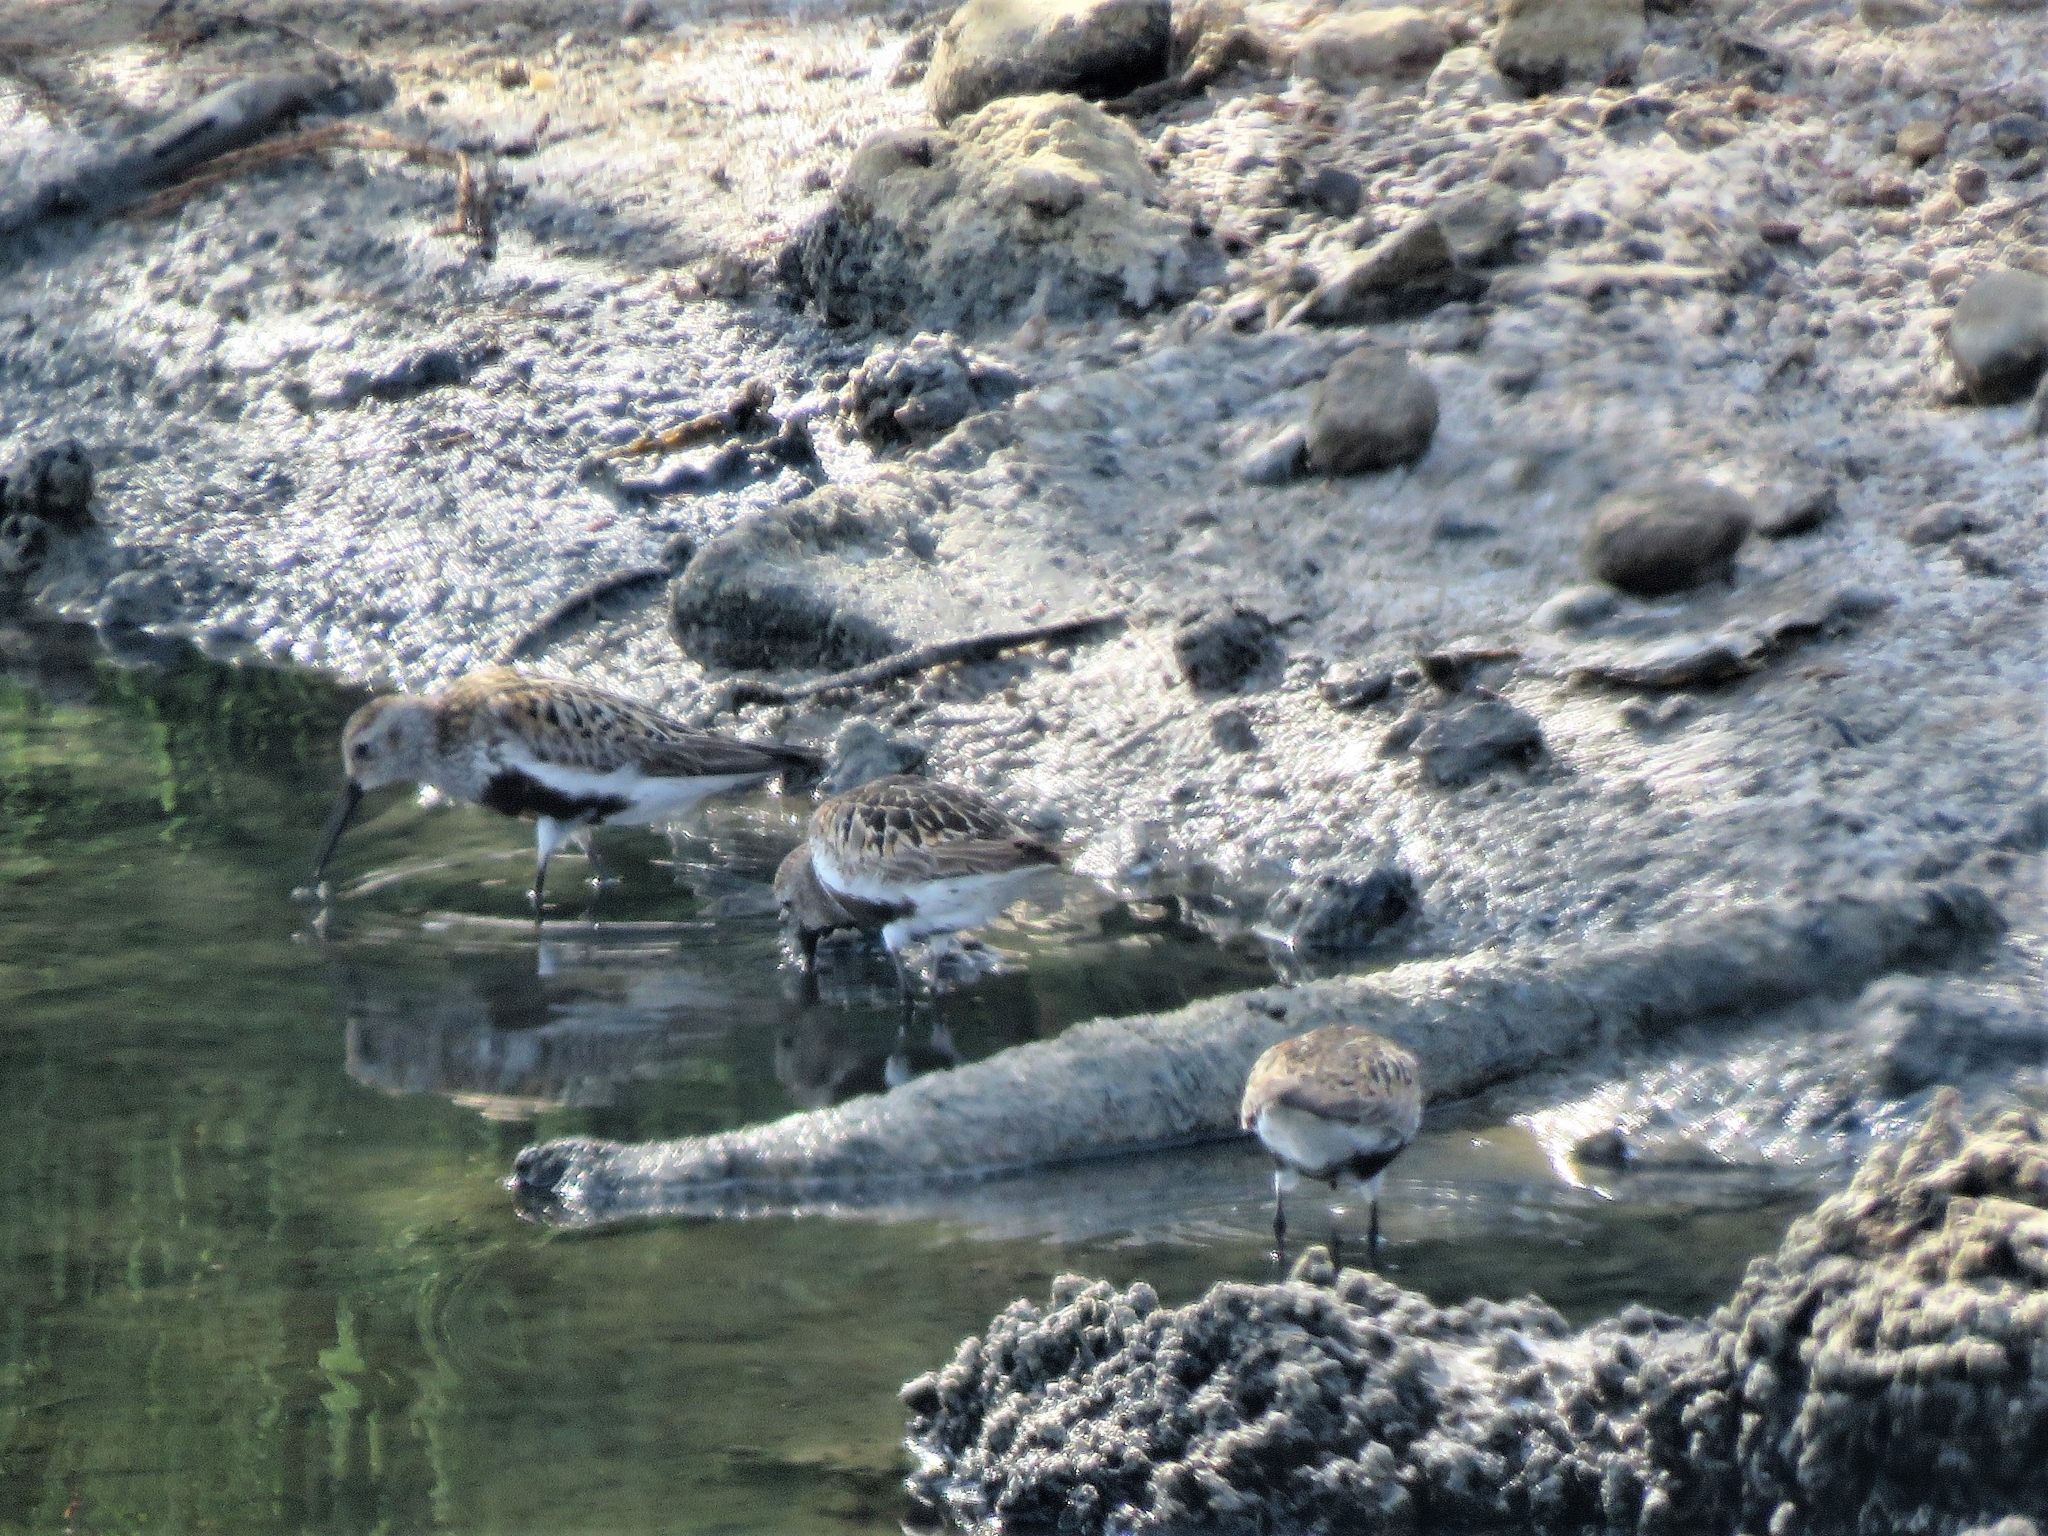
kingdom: Animalia
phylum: Chordata
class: Aves
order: Charadriiformes
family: Scolopacidae
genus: Calidris
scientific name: Calidris alpina
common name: Dunlin
